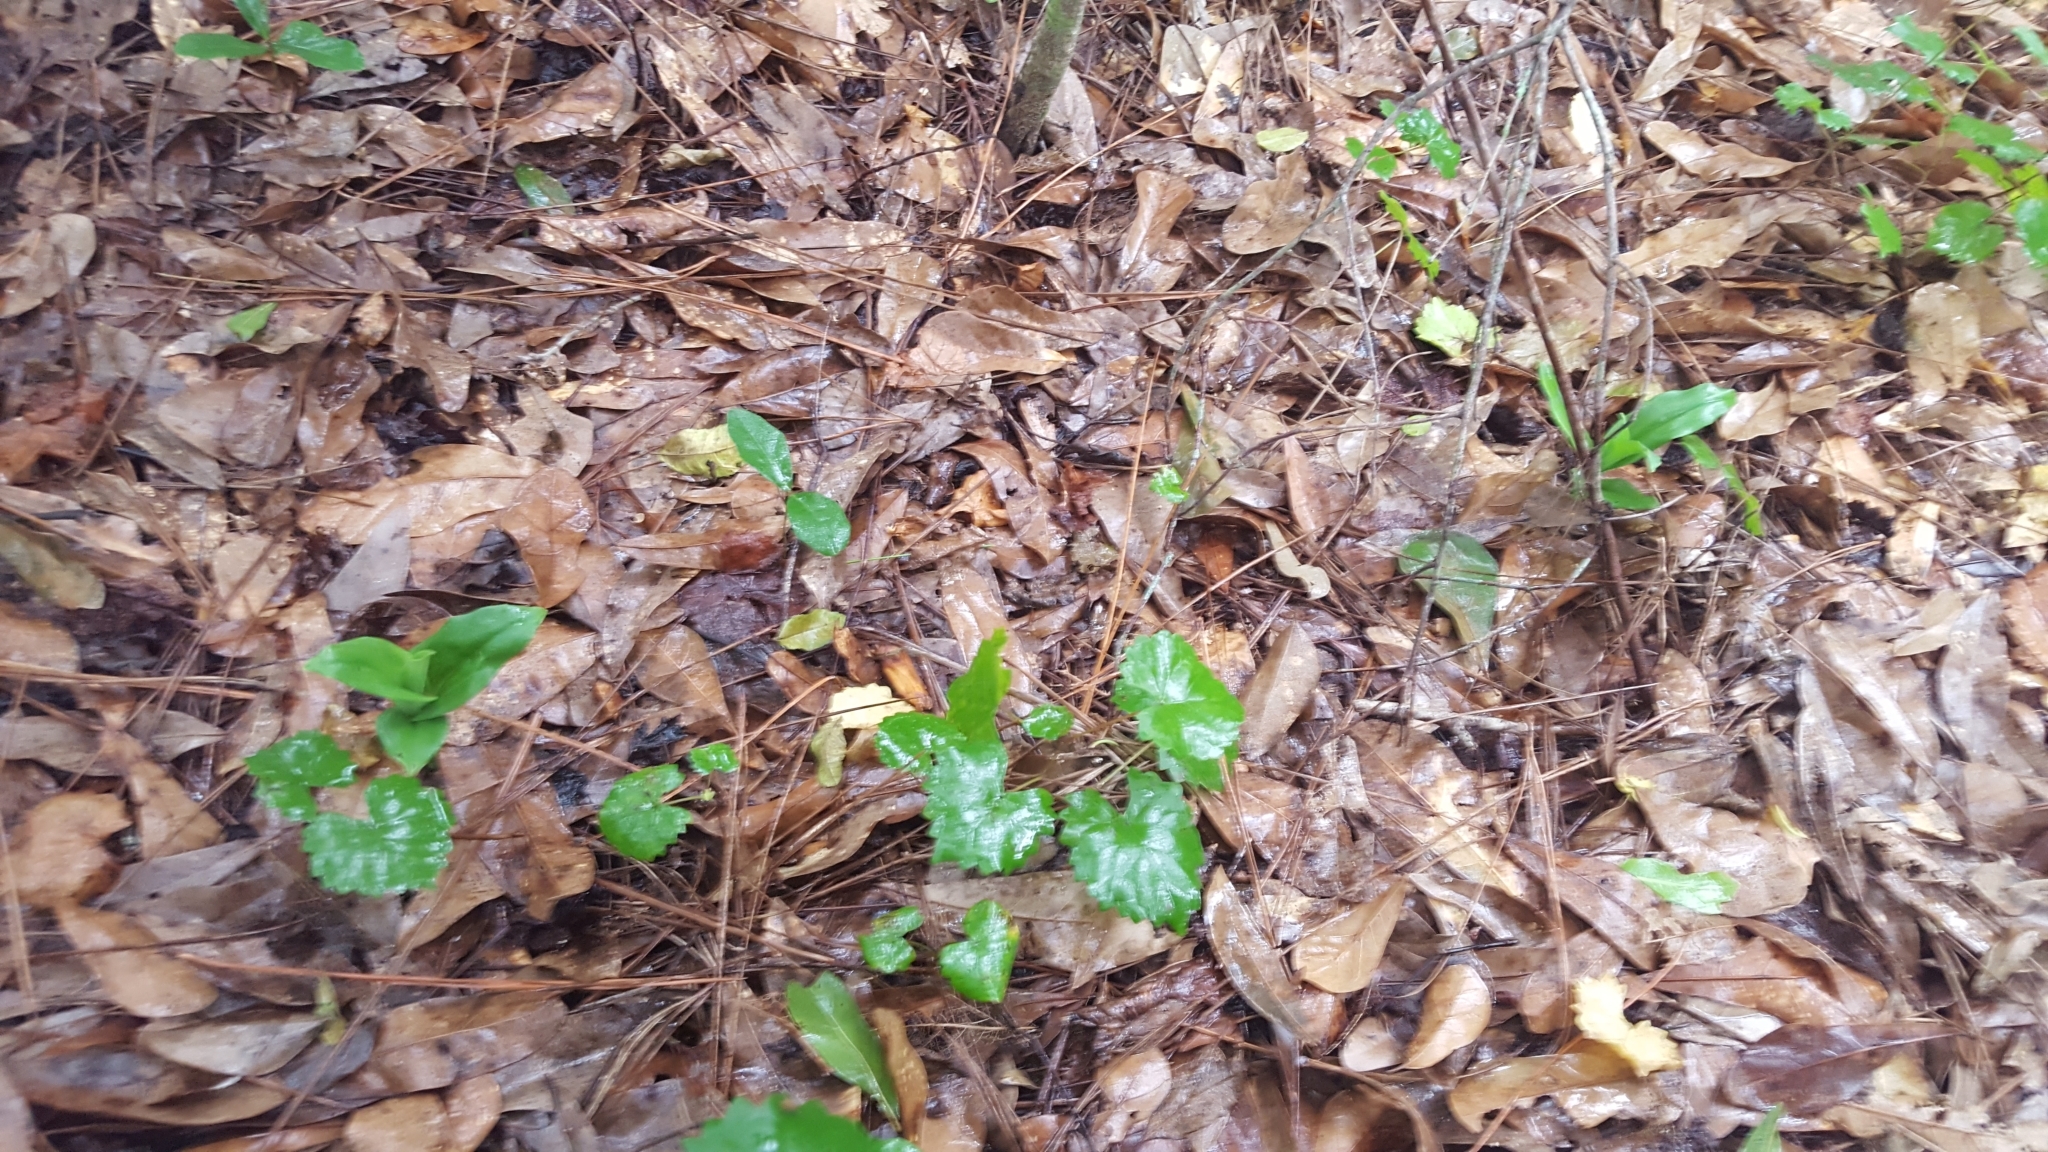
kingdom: Plantae
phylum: Tracheophyta
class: Liliopsida
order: Asparagales
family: Orchidaceae
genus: Habenaria
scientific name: Habenaria floribunda
